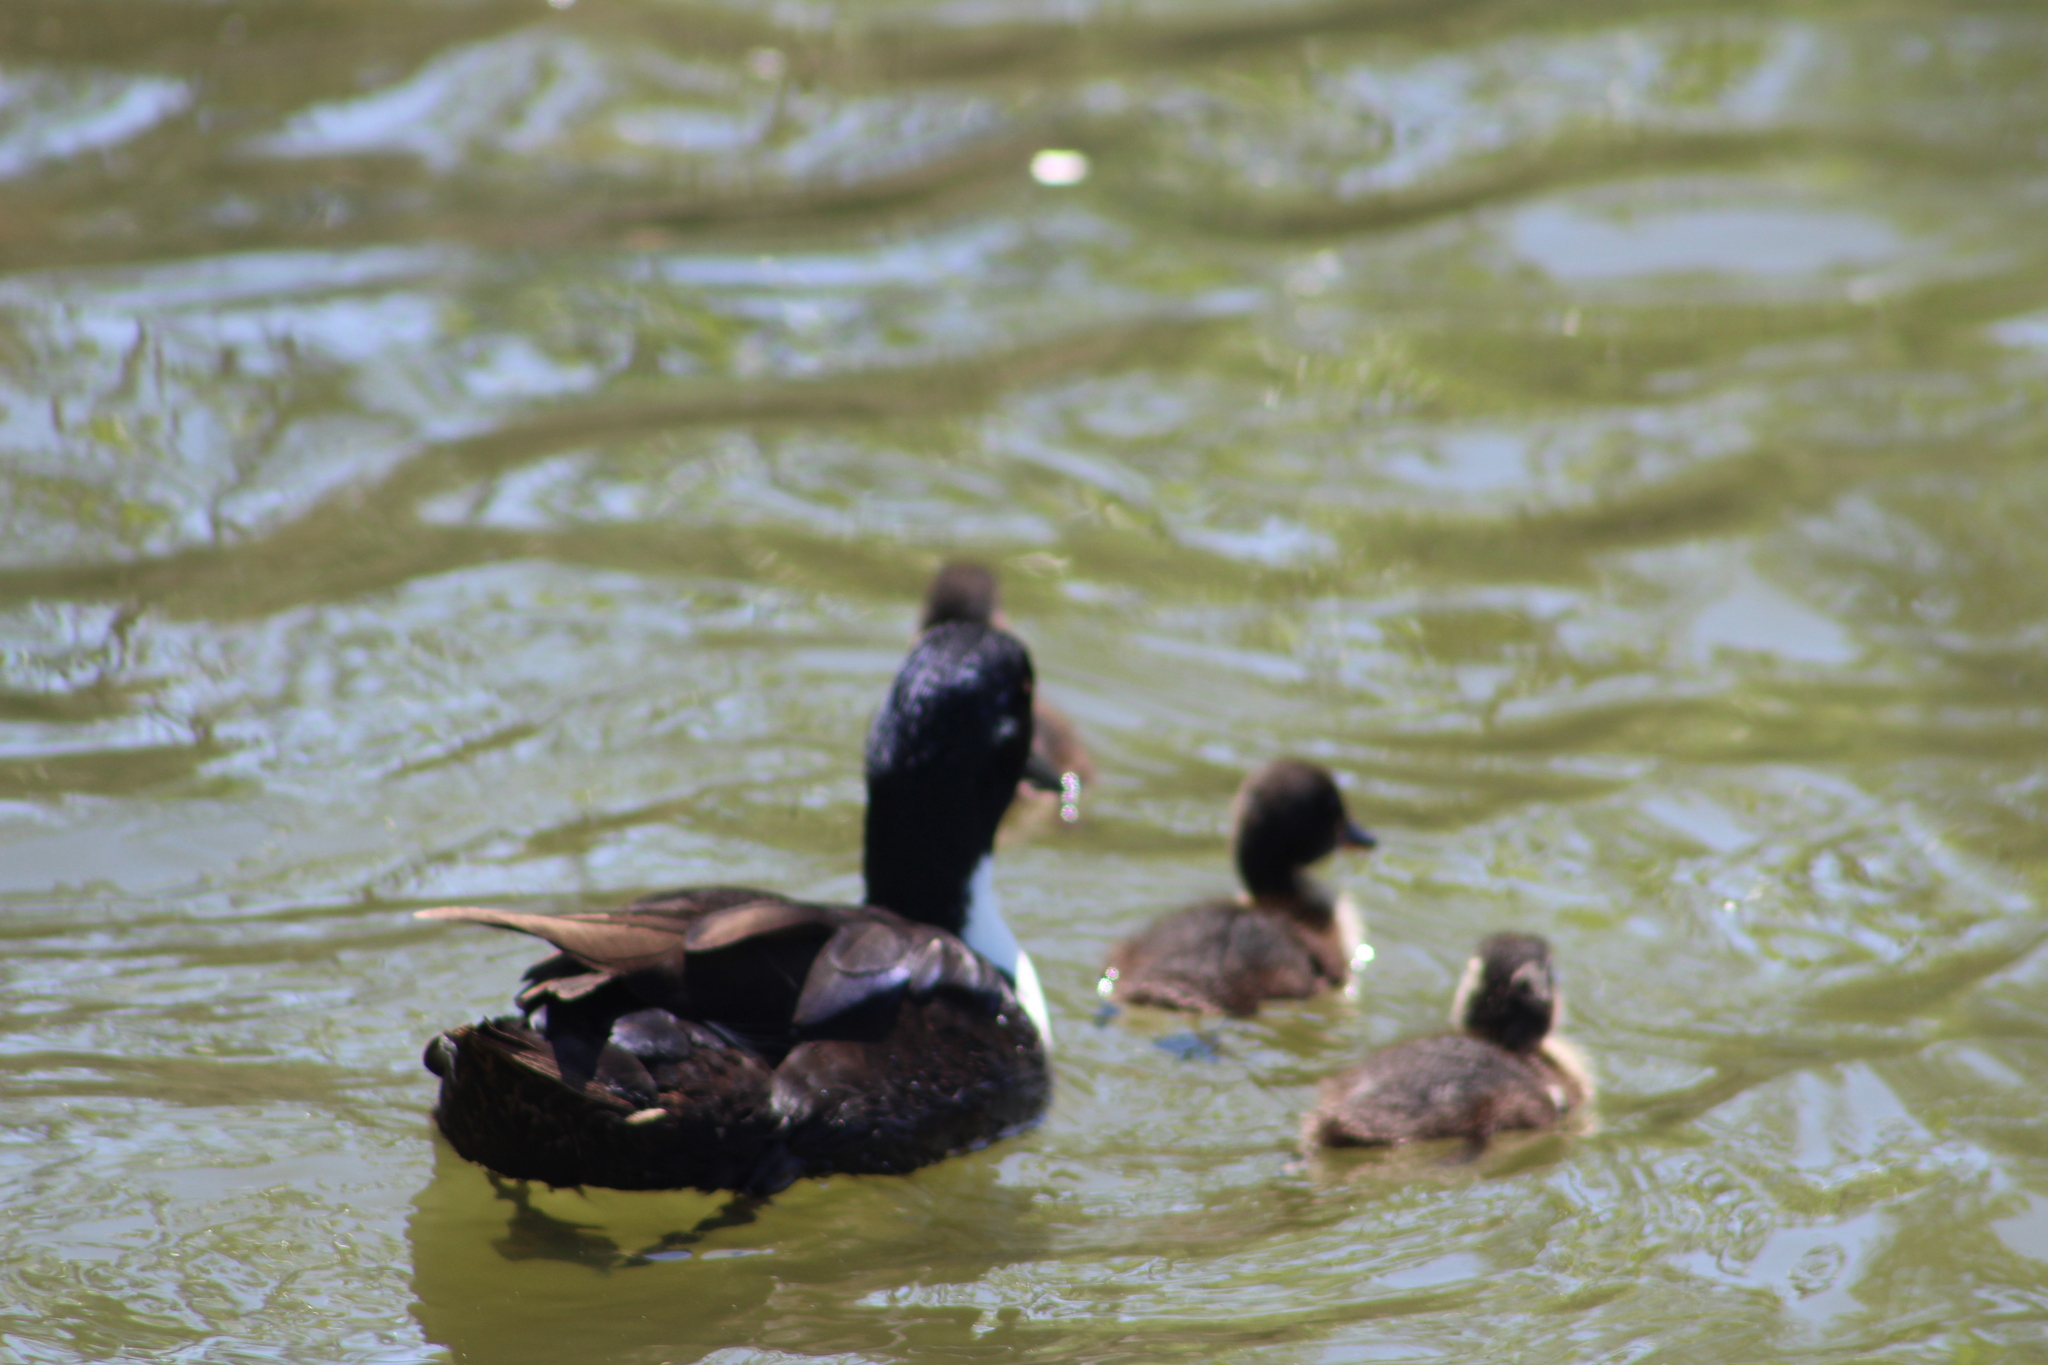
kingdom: Animalia
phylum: Chordata
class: Aves
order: Anseriformes
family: Anatidae
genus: Anas
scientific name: Anas platyrhynchos
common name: Mallard
